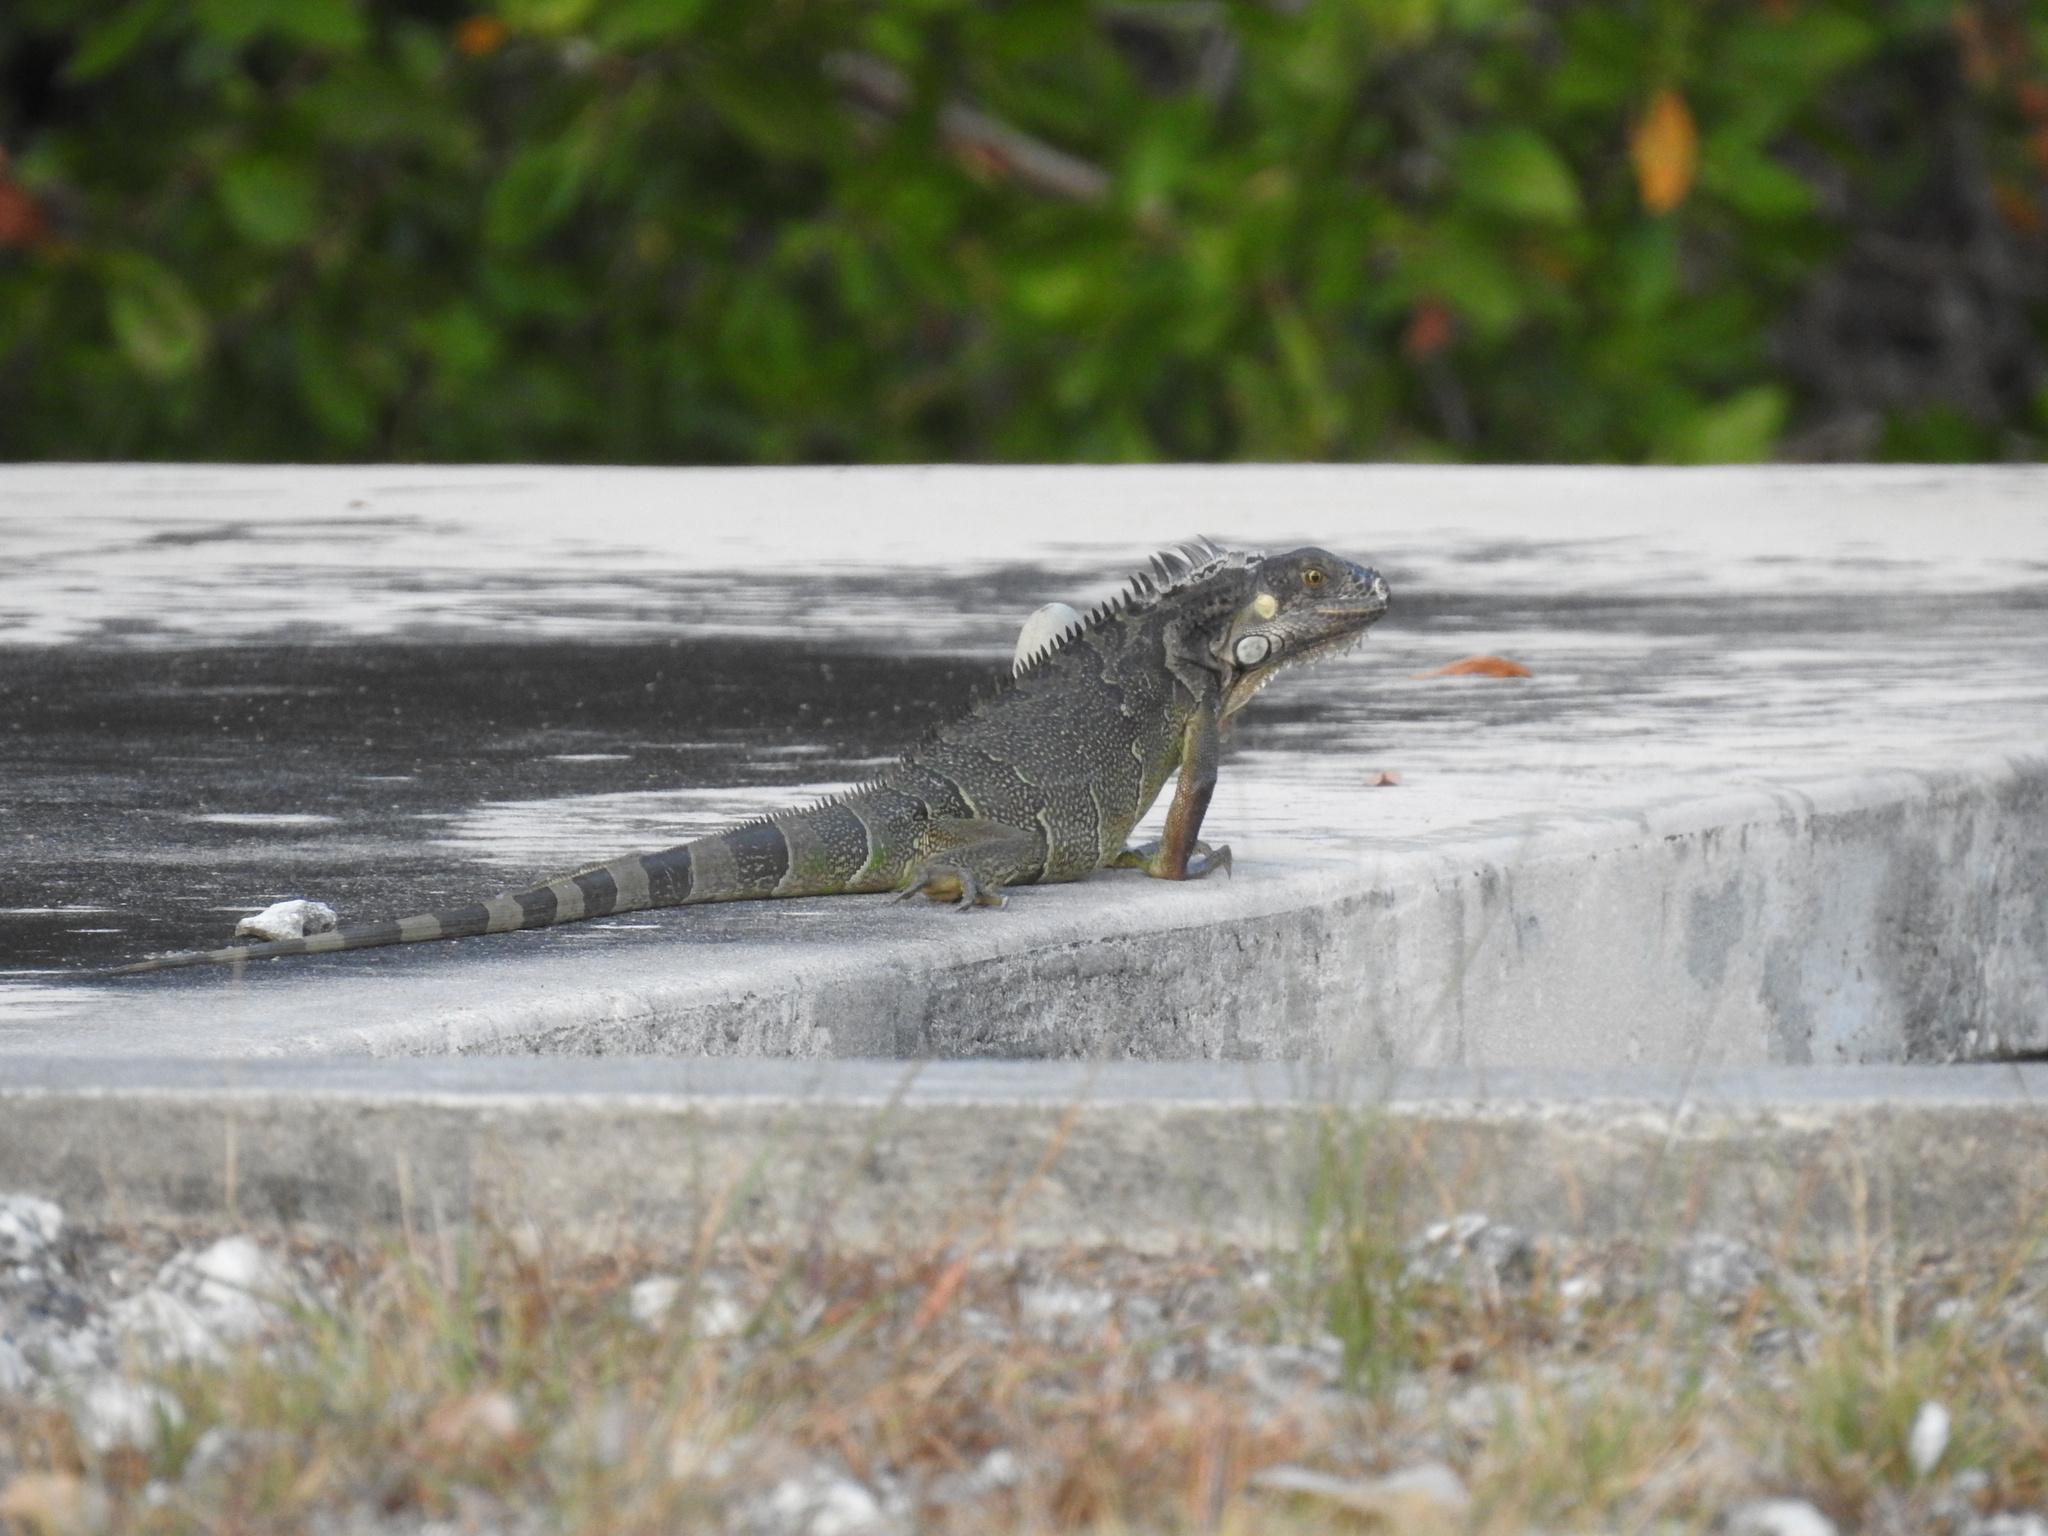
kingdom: Animalia
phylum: Chordata
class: Squamata
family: Iguanidae
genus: Iguana
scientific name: Iguana iguana
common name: Green iguana
